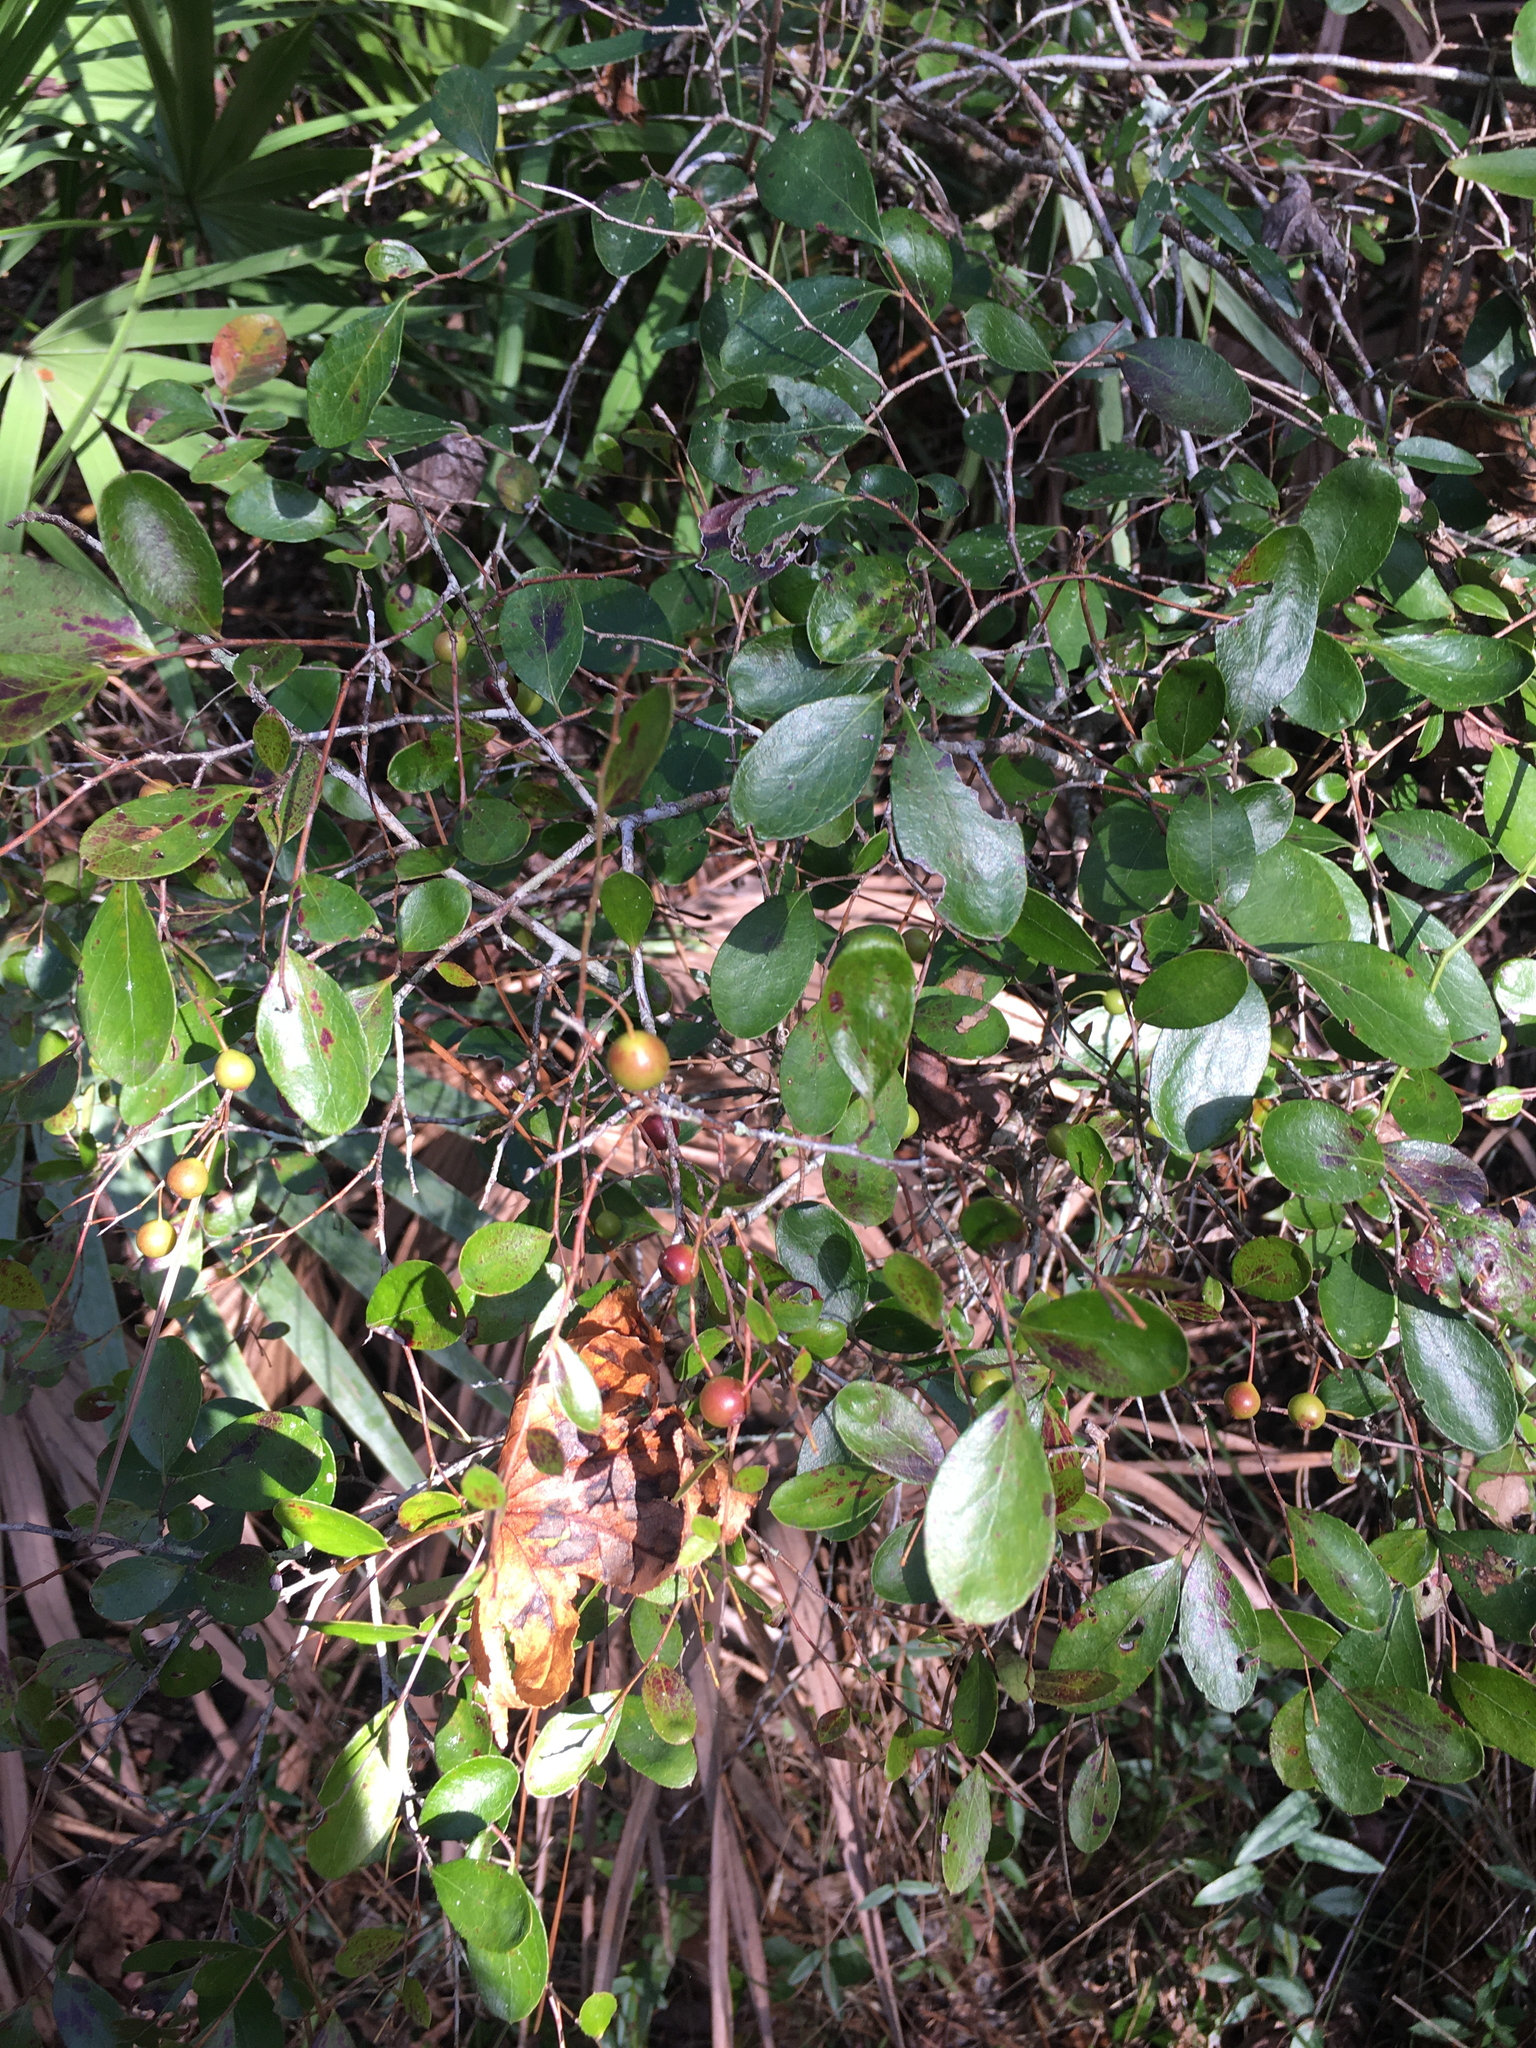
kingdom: Plantae
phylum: Tracheophyta
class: Magnoliopsida
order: Ericales
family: Ericaceae
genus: Vaccinium
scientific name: Vaccinium arboreum
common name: Farkleberry
